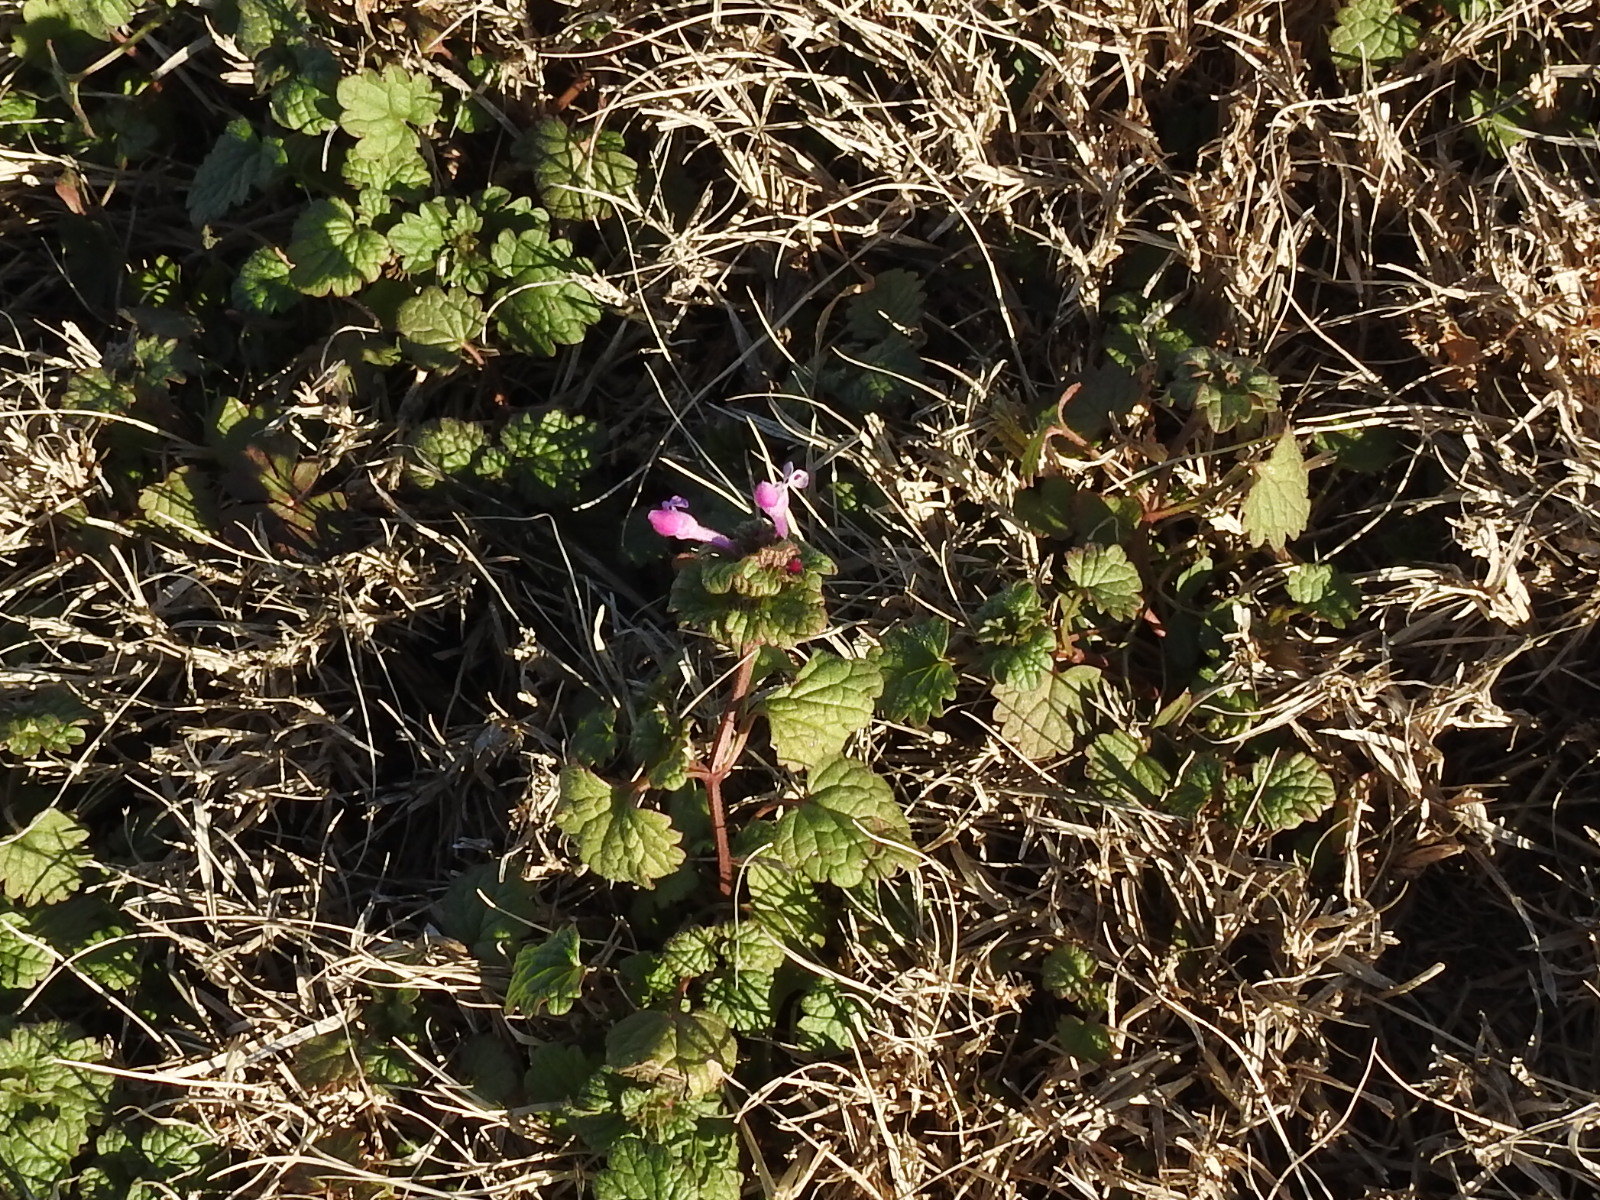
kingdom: Plantae
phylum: Tracheophyta
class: Magnoliopsida
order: Lamiales
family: Lamiaceae
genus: Lamium
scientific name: Lamium amplexicaule
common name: Henbit dead-nettle
